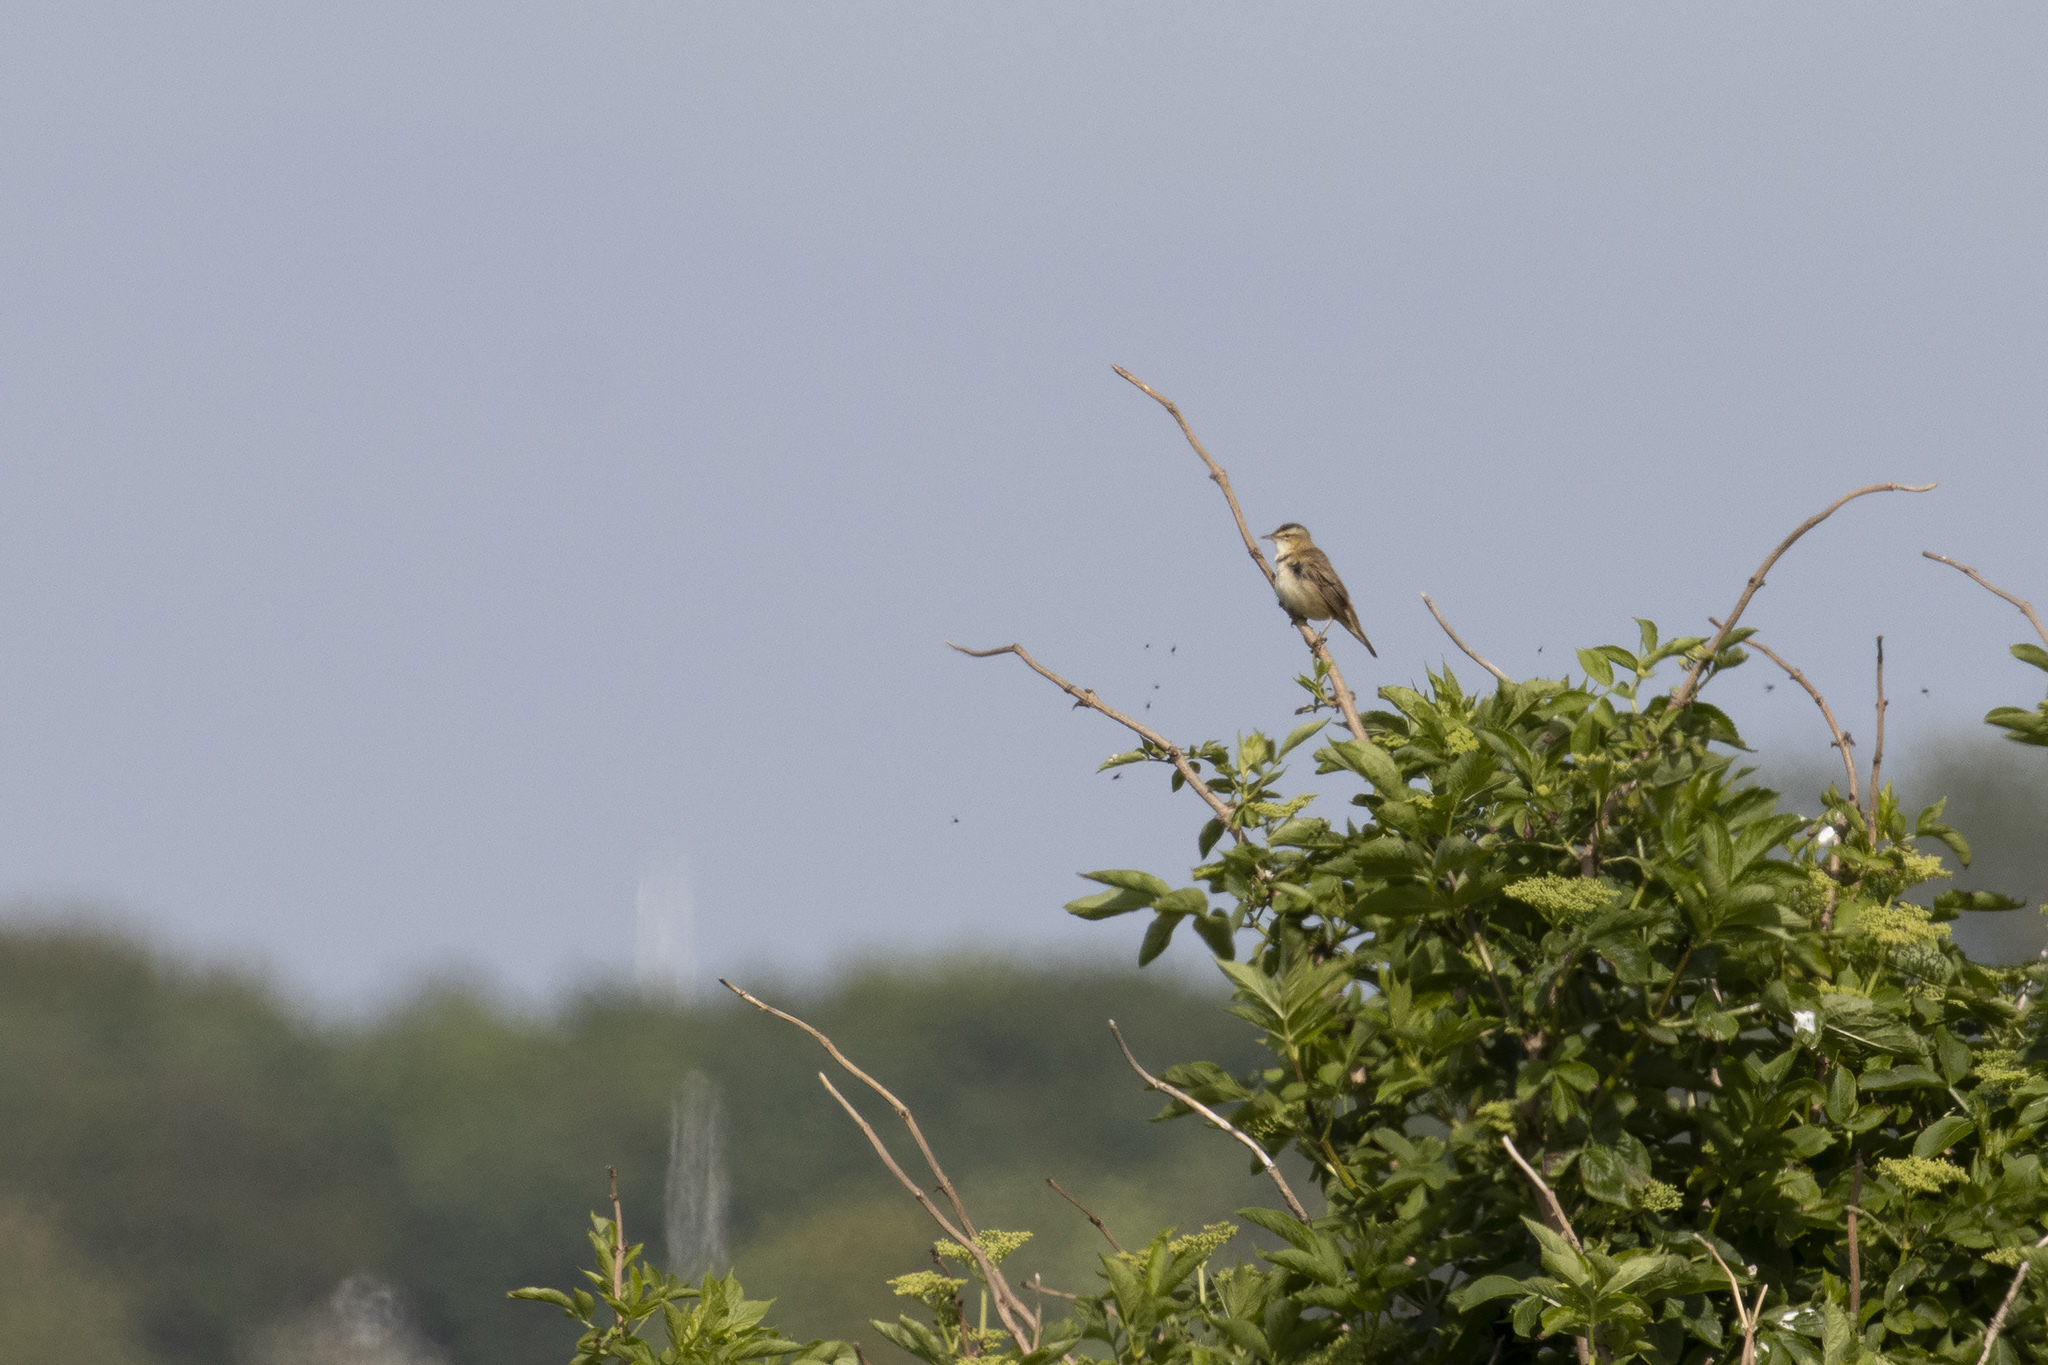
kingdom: Animalia
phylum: Chordata
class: Aves
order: Passeriformes
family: Acrocephalidae
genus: Acrocephalus
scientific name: Acrocephalus schoenobaenus
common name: Sedge warbler
